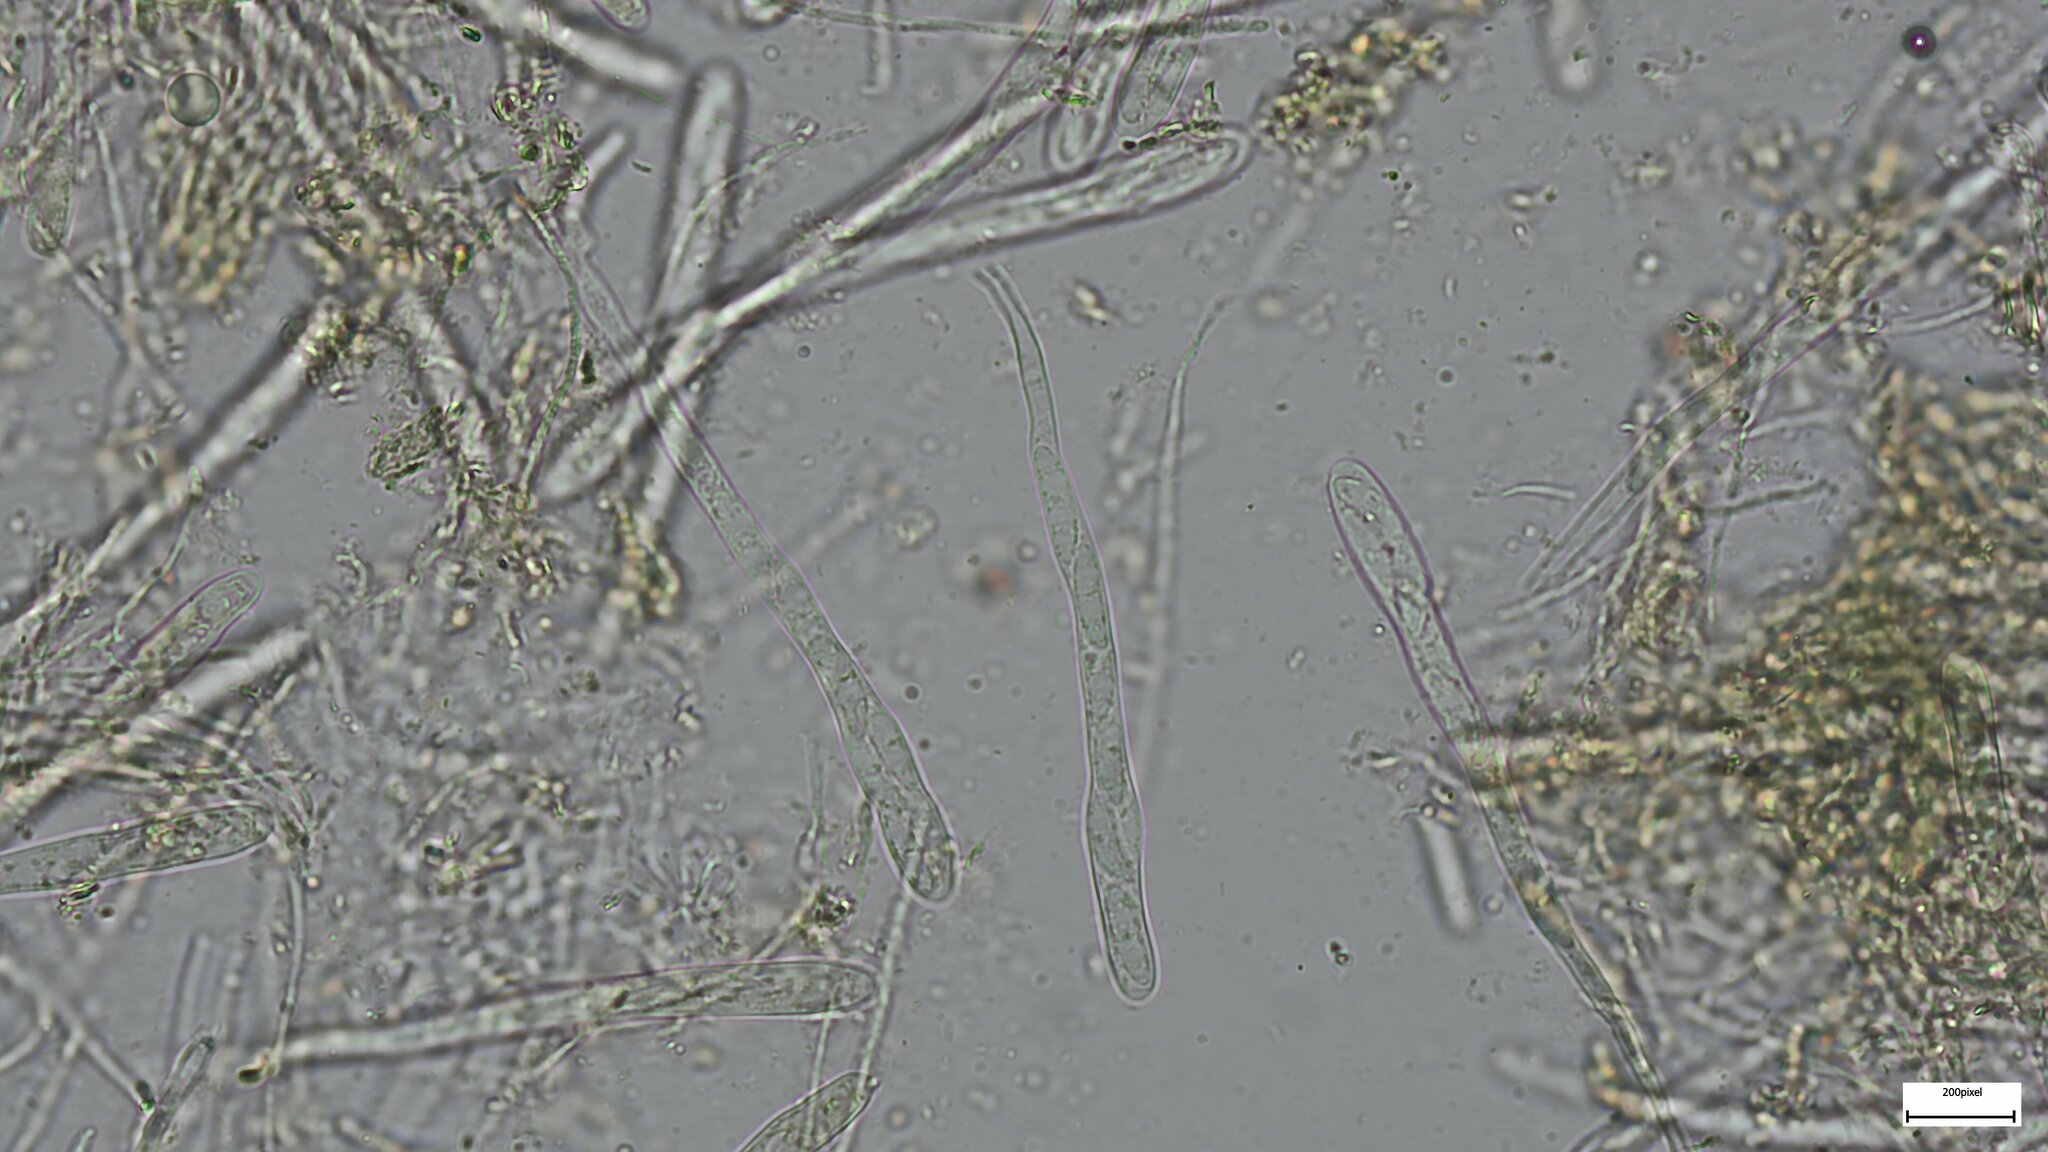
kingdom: Fungi
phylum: Ascomycota
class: Leotiomycetes
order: Leotiales
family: Leotiaceae
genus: Leotia
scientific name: Leotia lubrica
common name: Jellybaby
